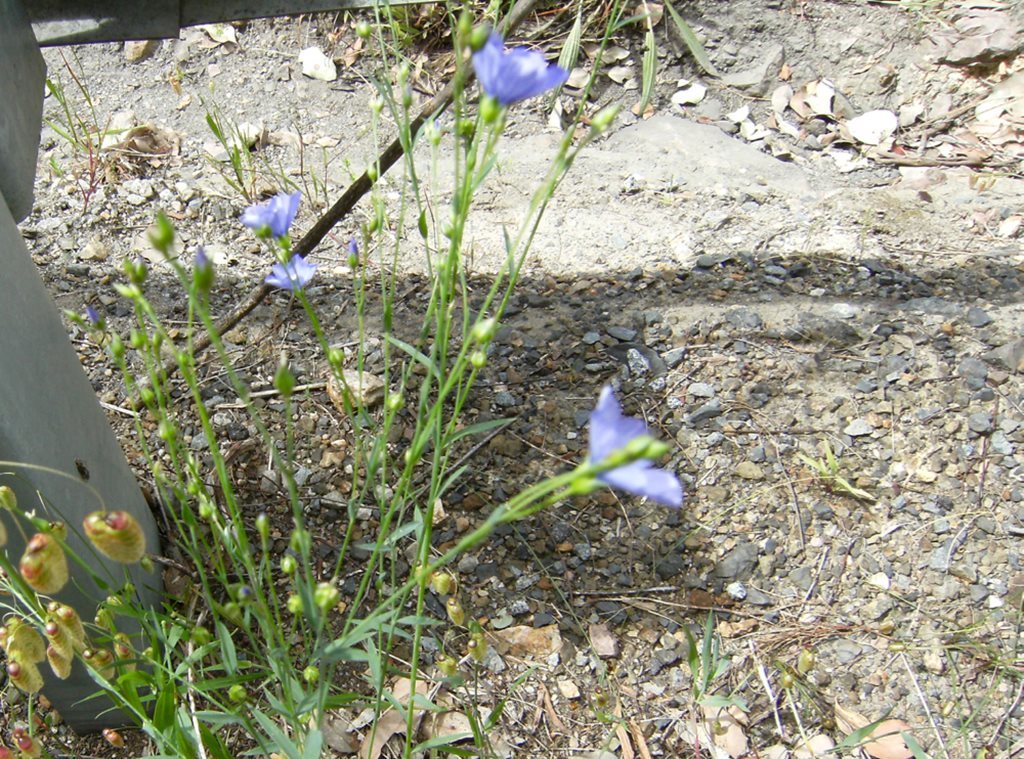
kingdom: Plantae
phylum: Tracheophyta
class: Magnoliopsida
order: Malpighiales
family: Linaceae
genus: Linum
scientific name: Linum marginale
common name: Wild flax
